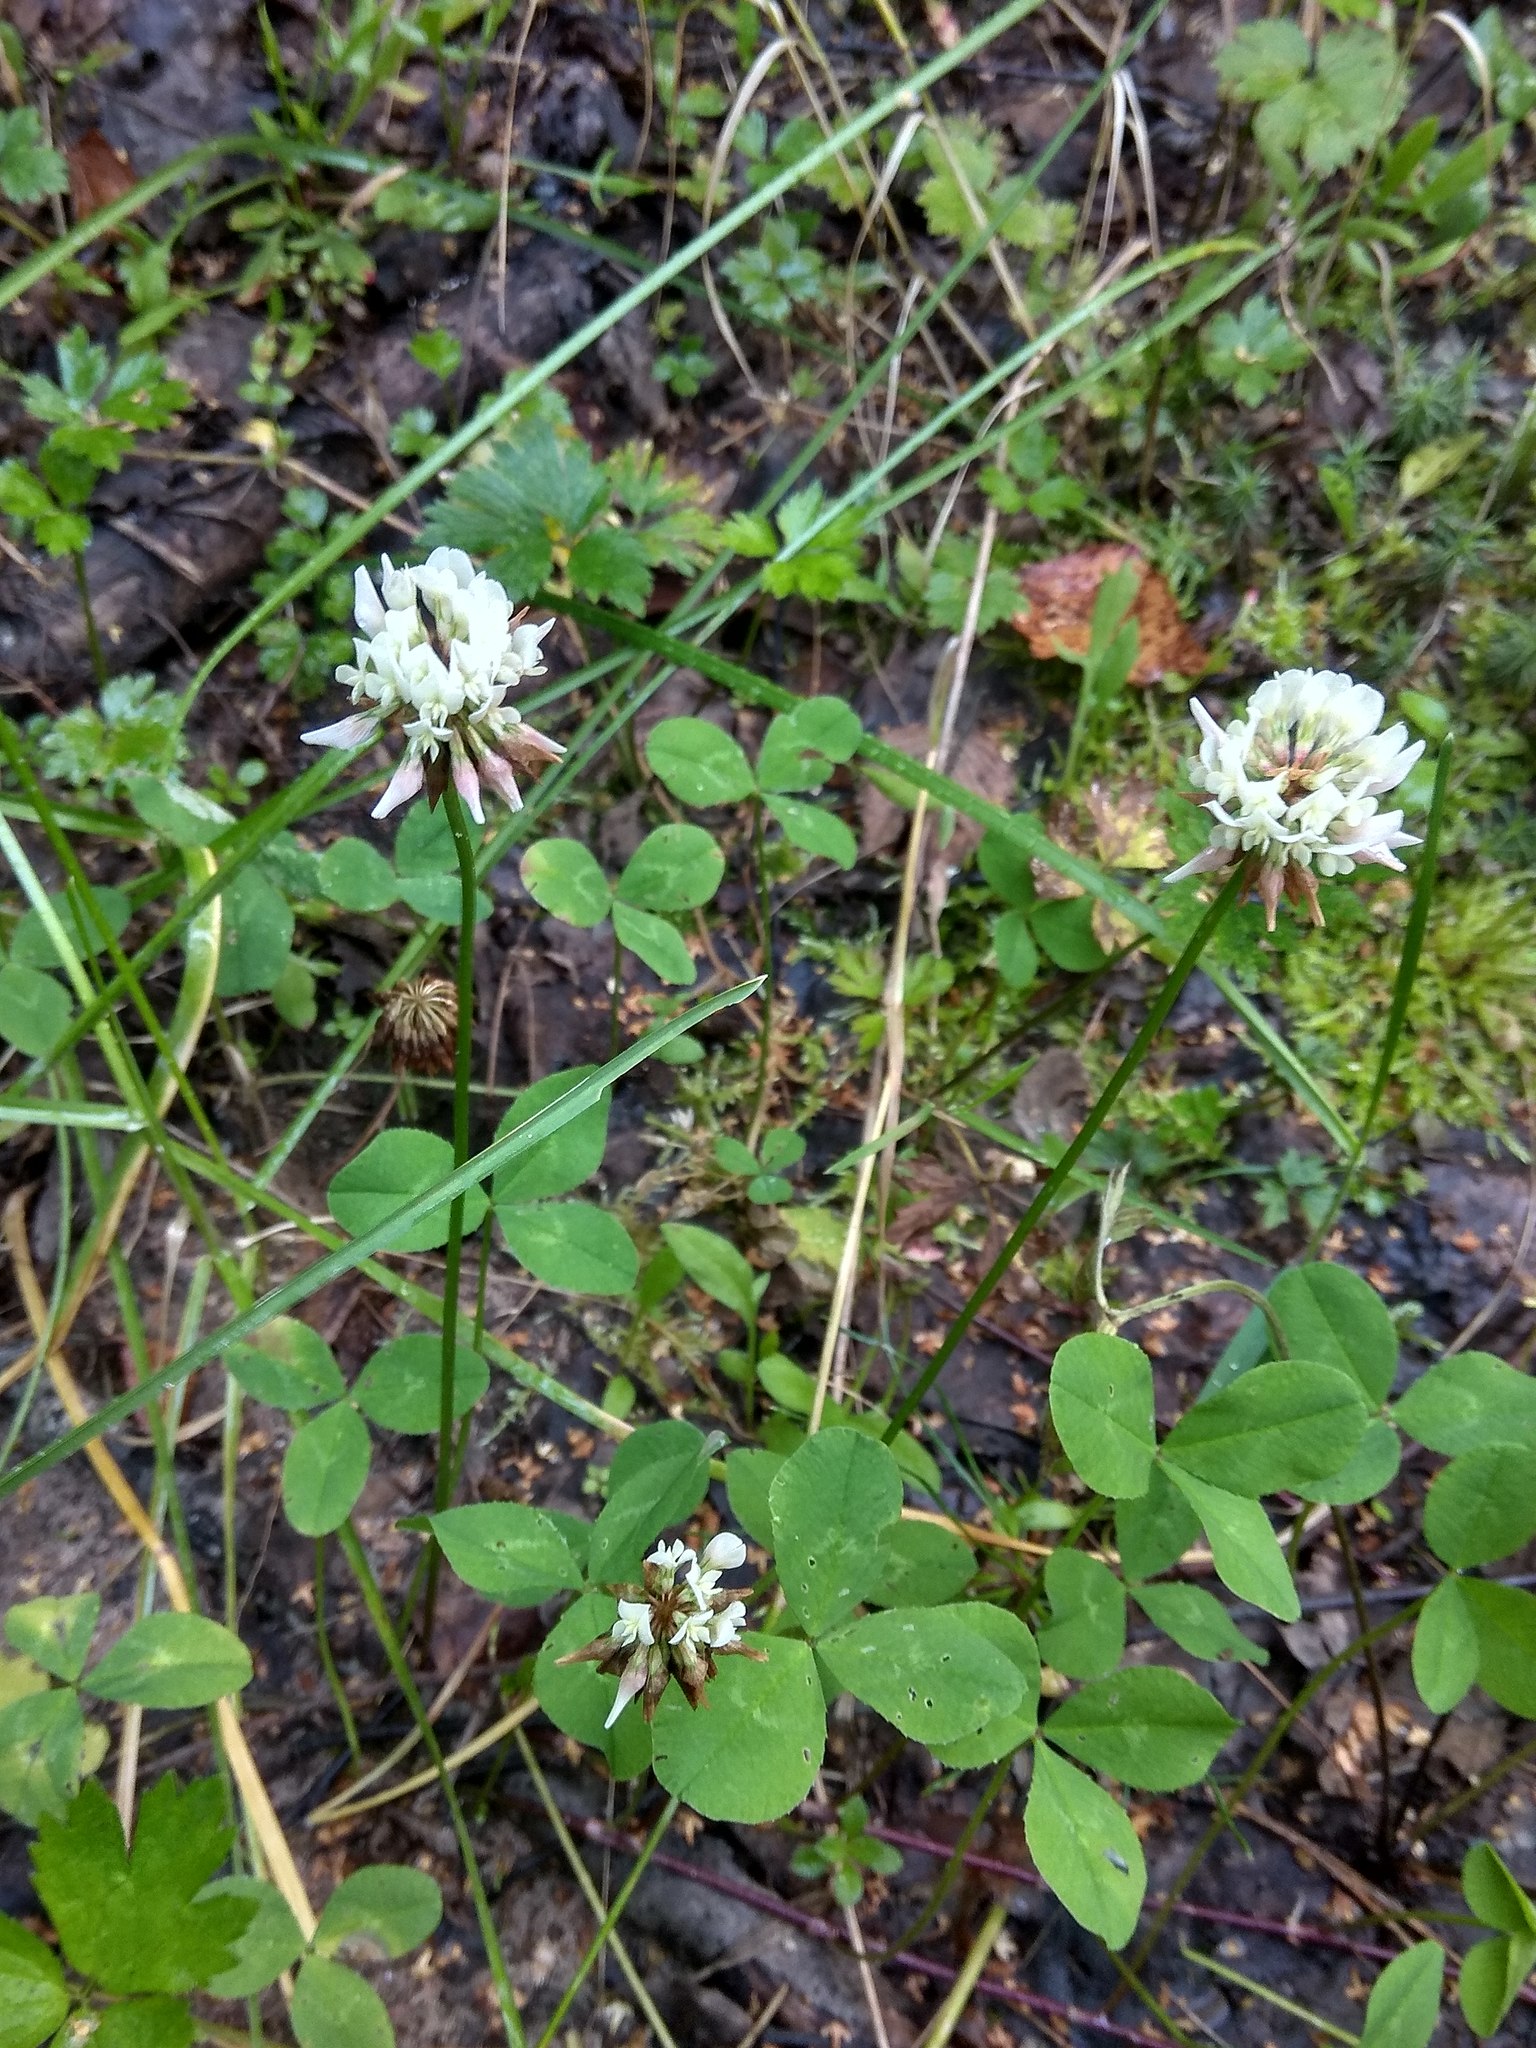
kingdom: Plantae
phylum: Tracheophyta
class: Magnoliopsida
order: Fabales
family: Fabaceae
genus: Trifolium
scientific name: Trifolium repens
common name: White clover
